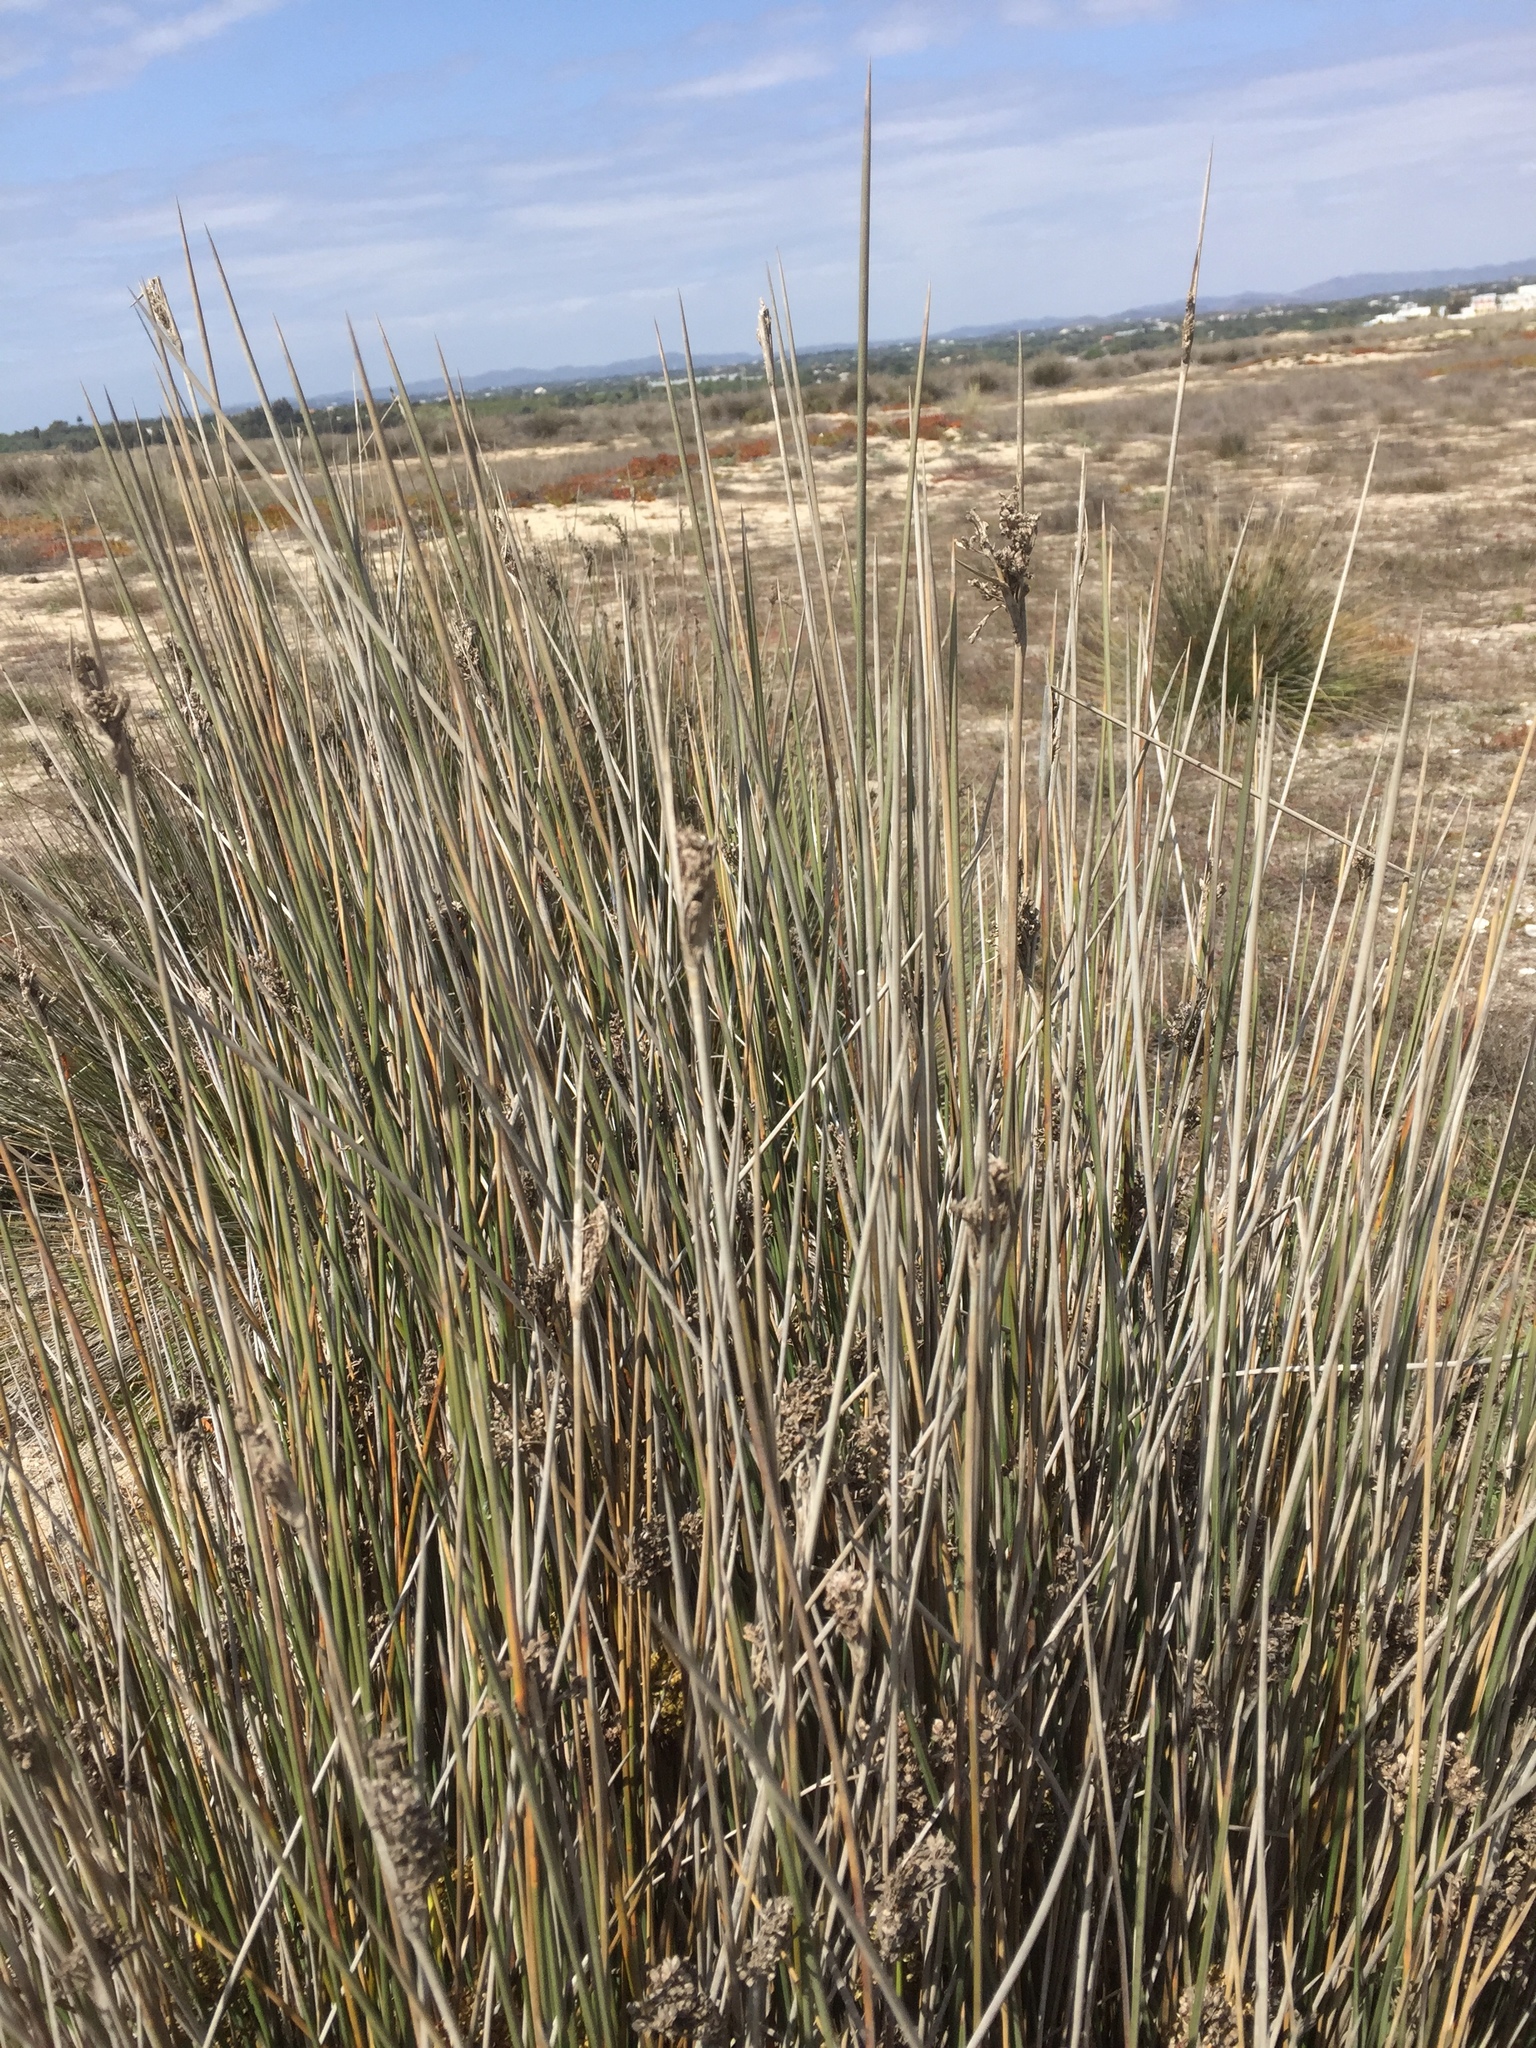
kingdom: Plantae
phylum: Tracheophyta
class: Liliopsida
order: Poales
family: Juncaceae
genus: Juncus
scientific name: Juncus acutus
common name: Sharp rush
